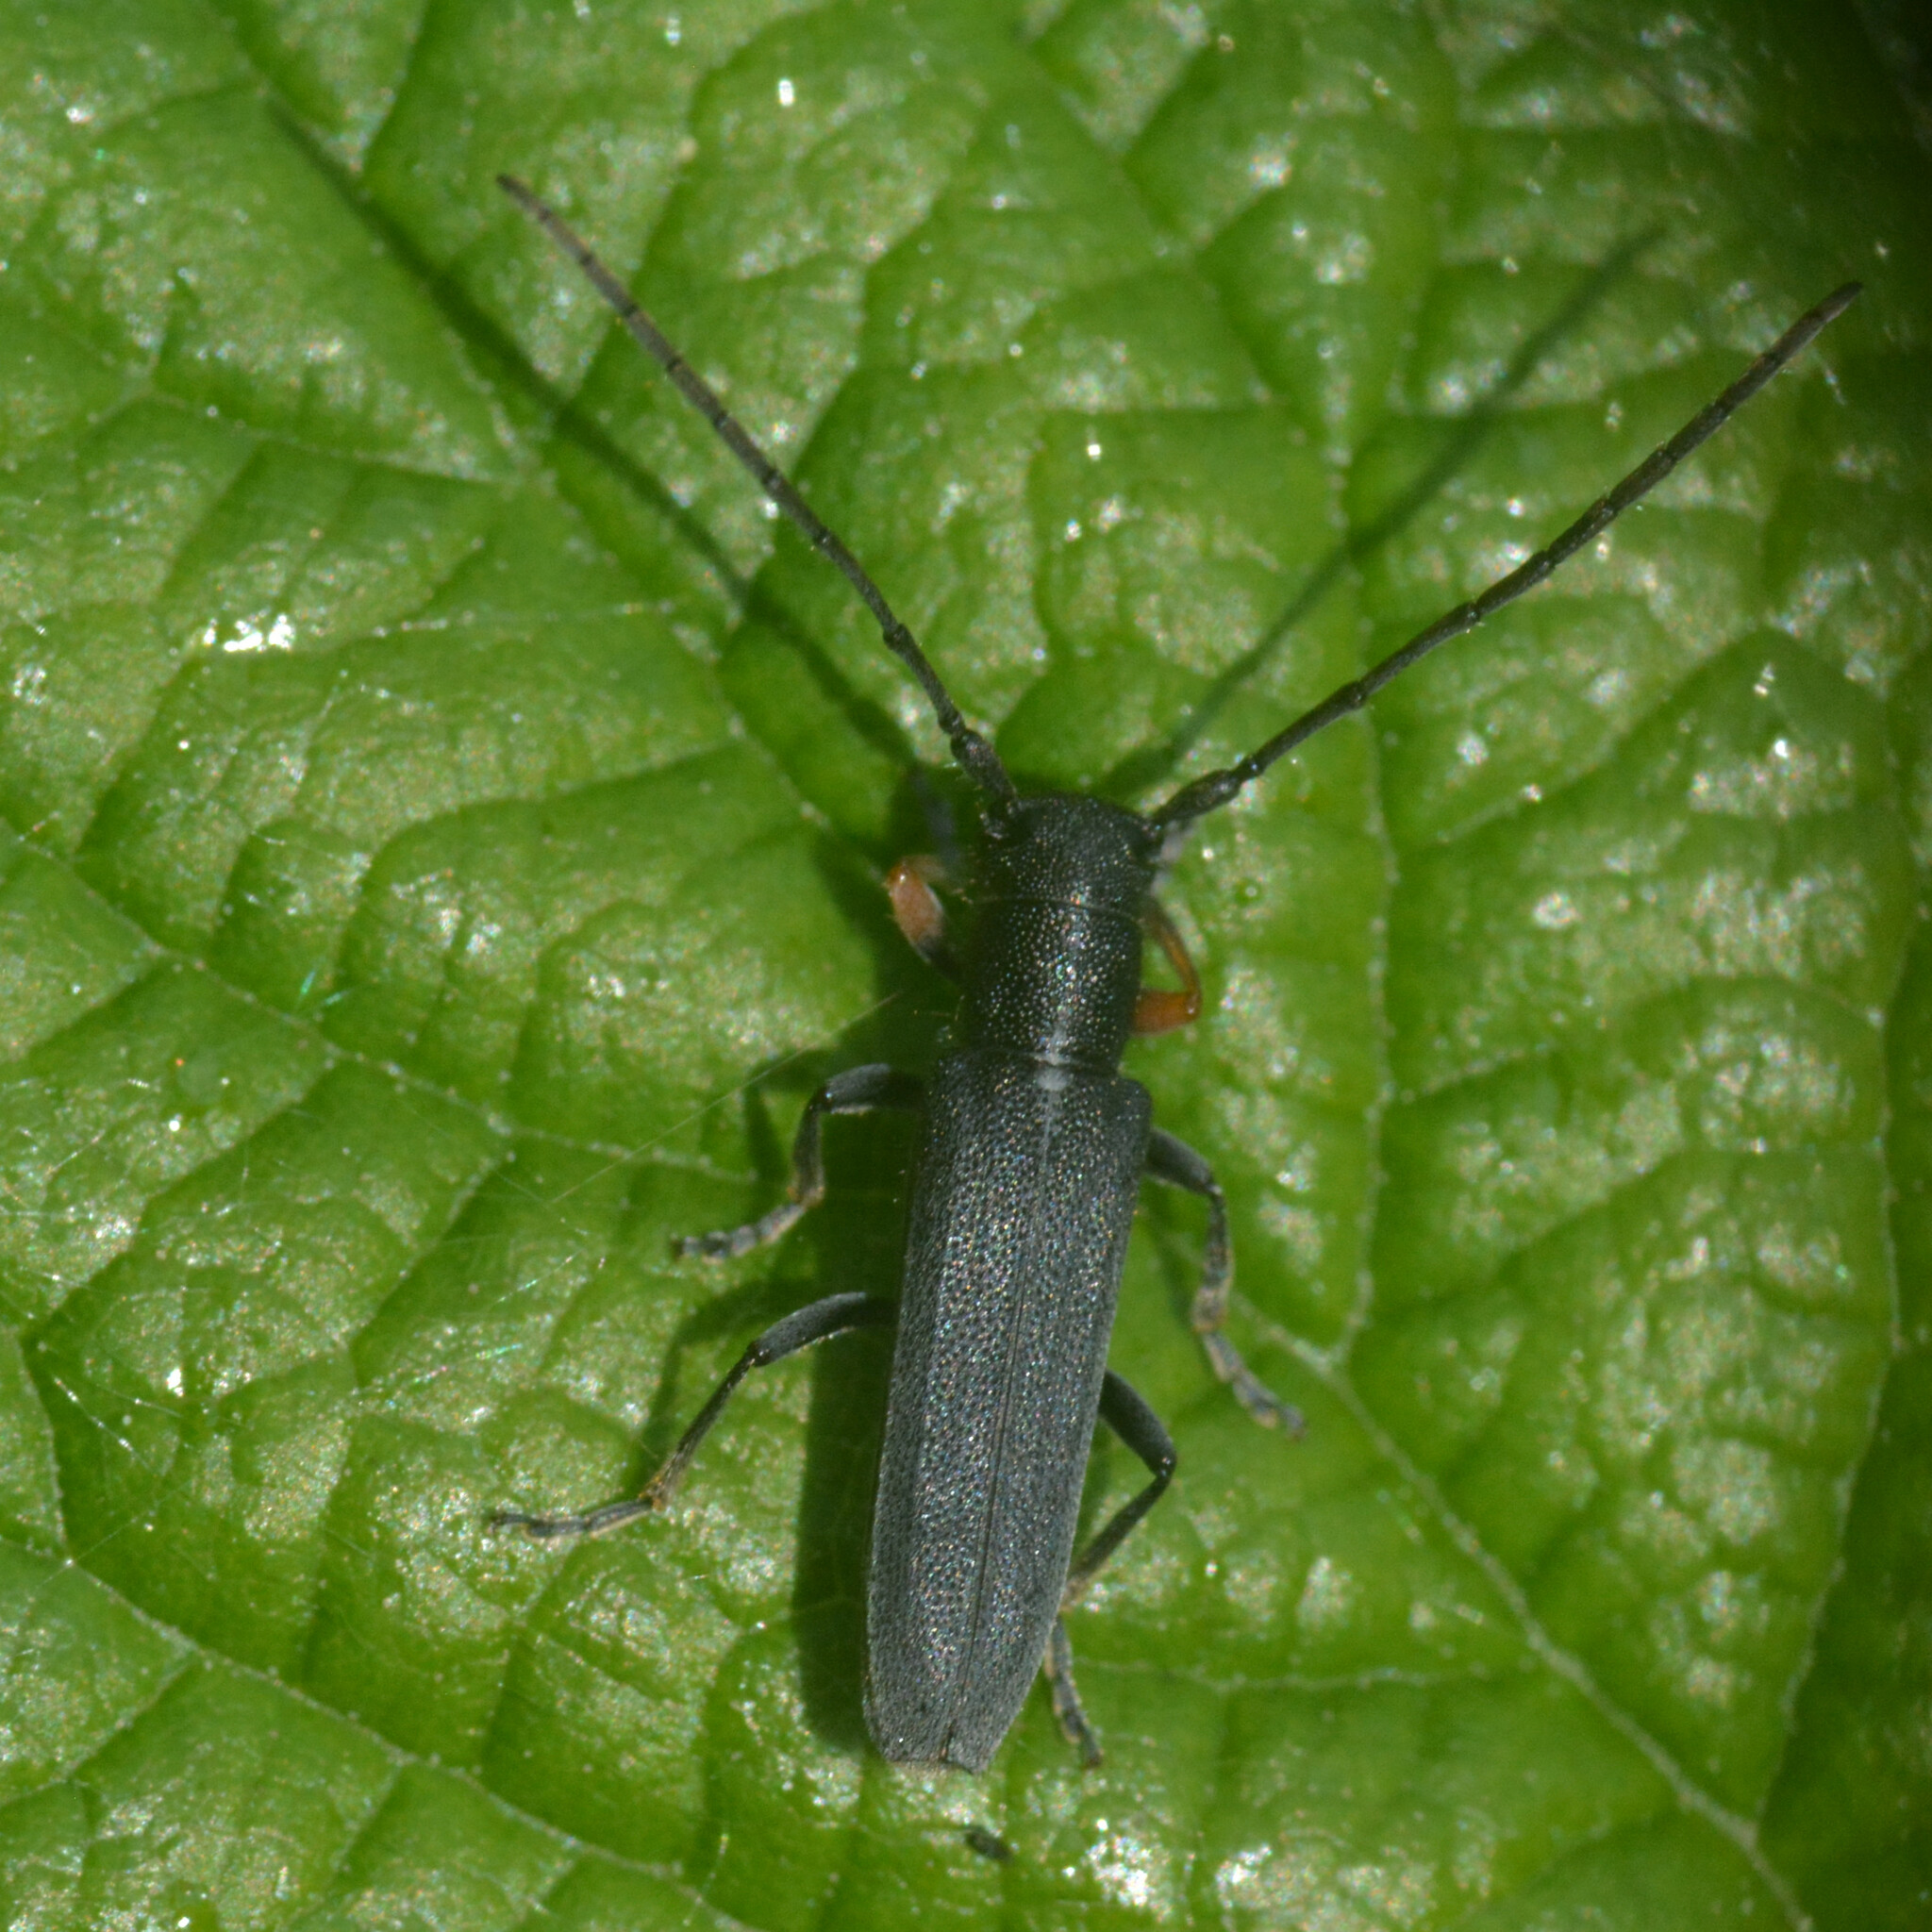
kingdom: Animalia
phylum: Arthropoda
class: Insecta
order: Coleoptera
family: Cerambycidae
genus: Phytoecia
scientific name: Phytoecia cylindrica
